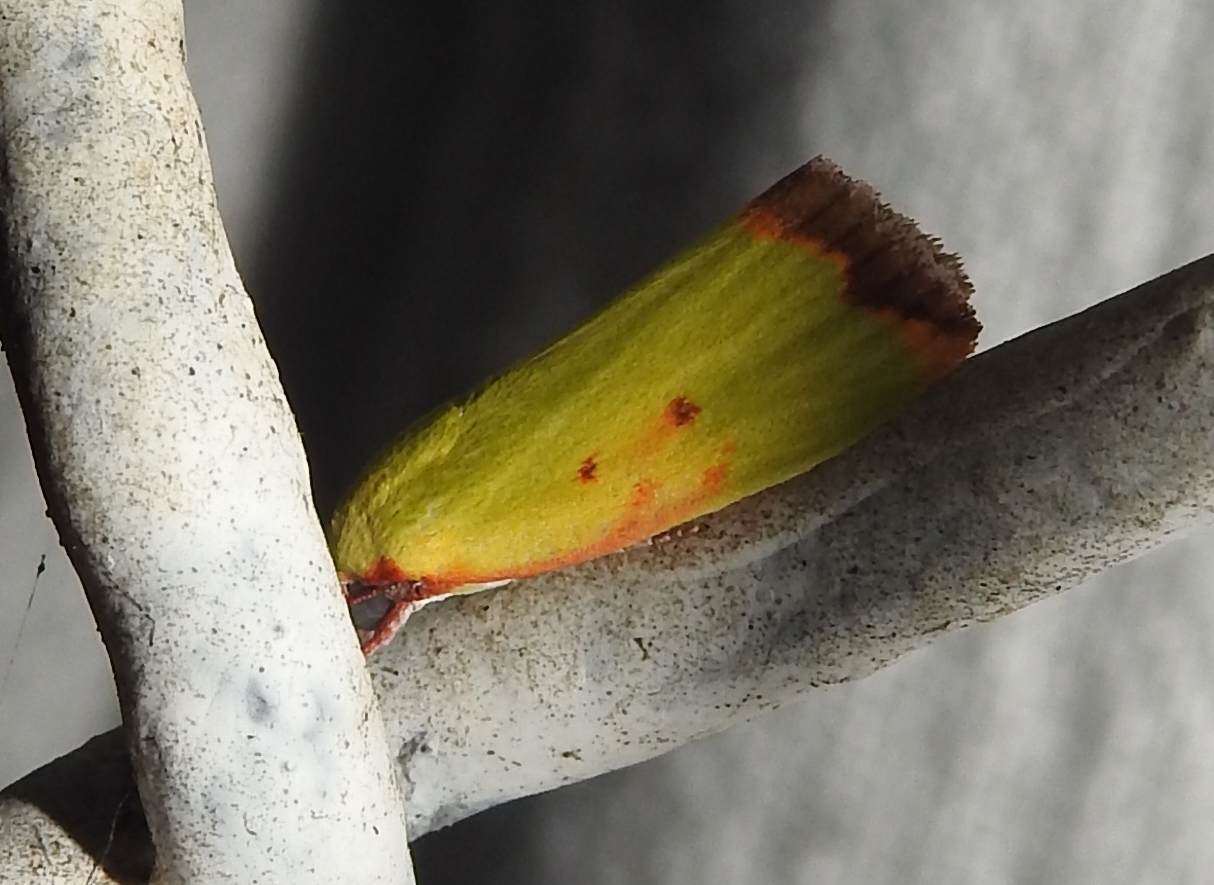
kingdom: Animalia
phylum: Arthropoda
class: Insecta
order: Lepidoptera
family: Nolidae
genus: Earias
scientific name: Earias cupreoviridis
